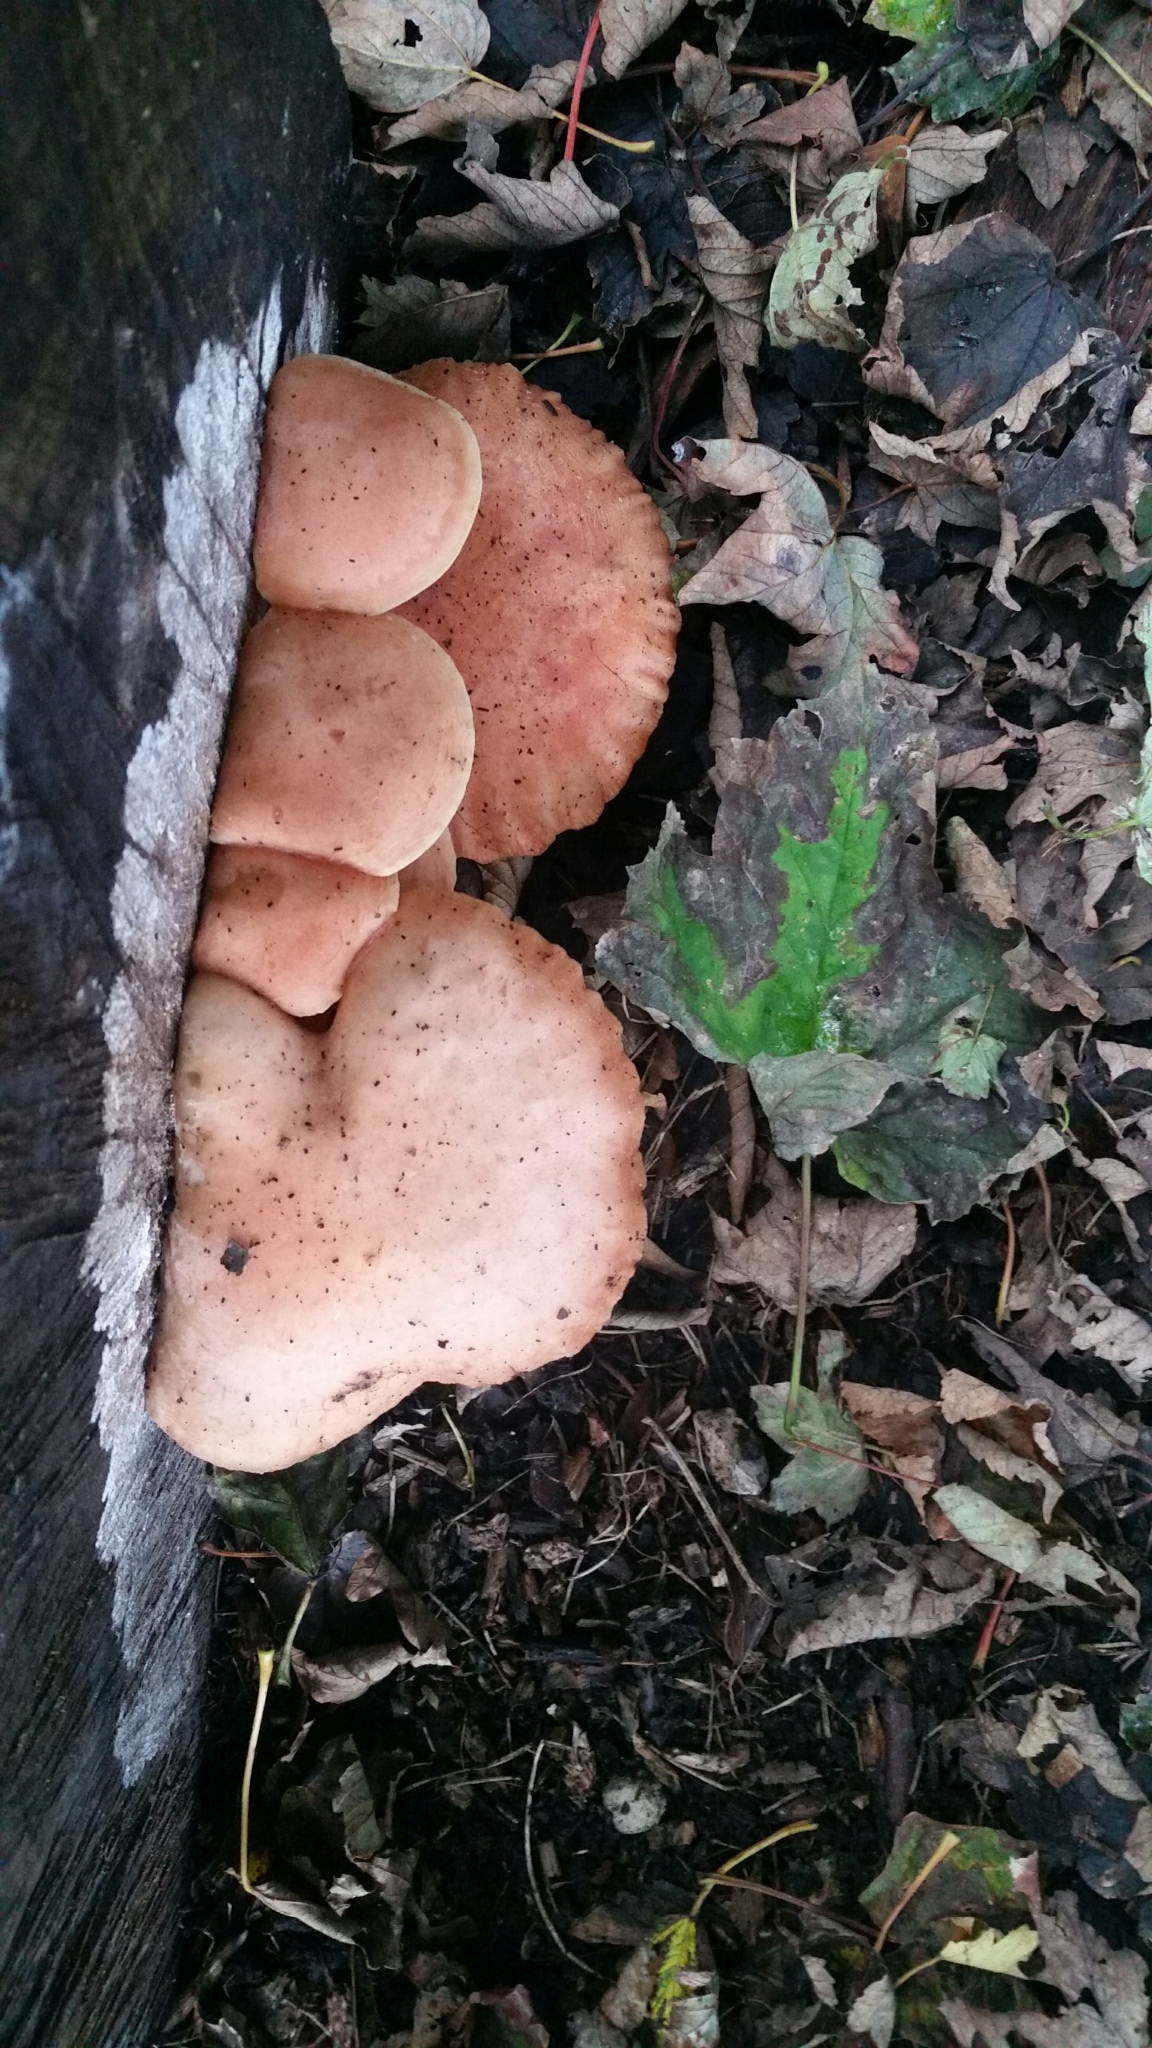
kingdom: Fungi
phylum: Basidiomycota
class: Agaricomycetes
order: Agaricales
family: Physalacriaceae
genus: Rhodotus
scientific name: Rhodotus palmatus
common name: Wrinkled peach
